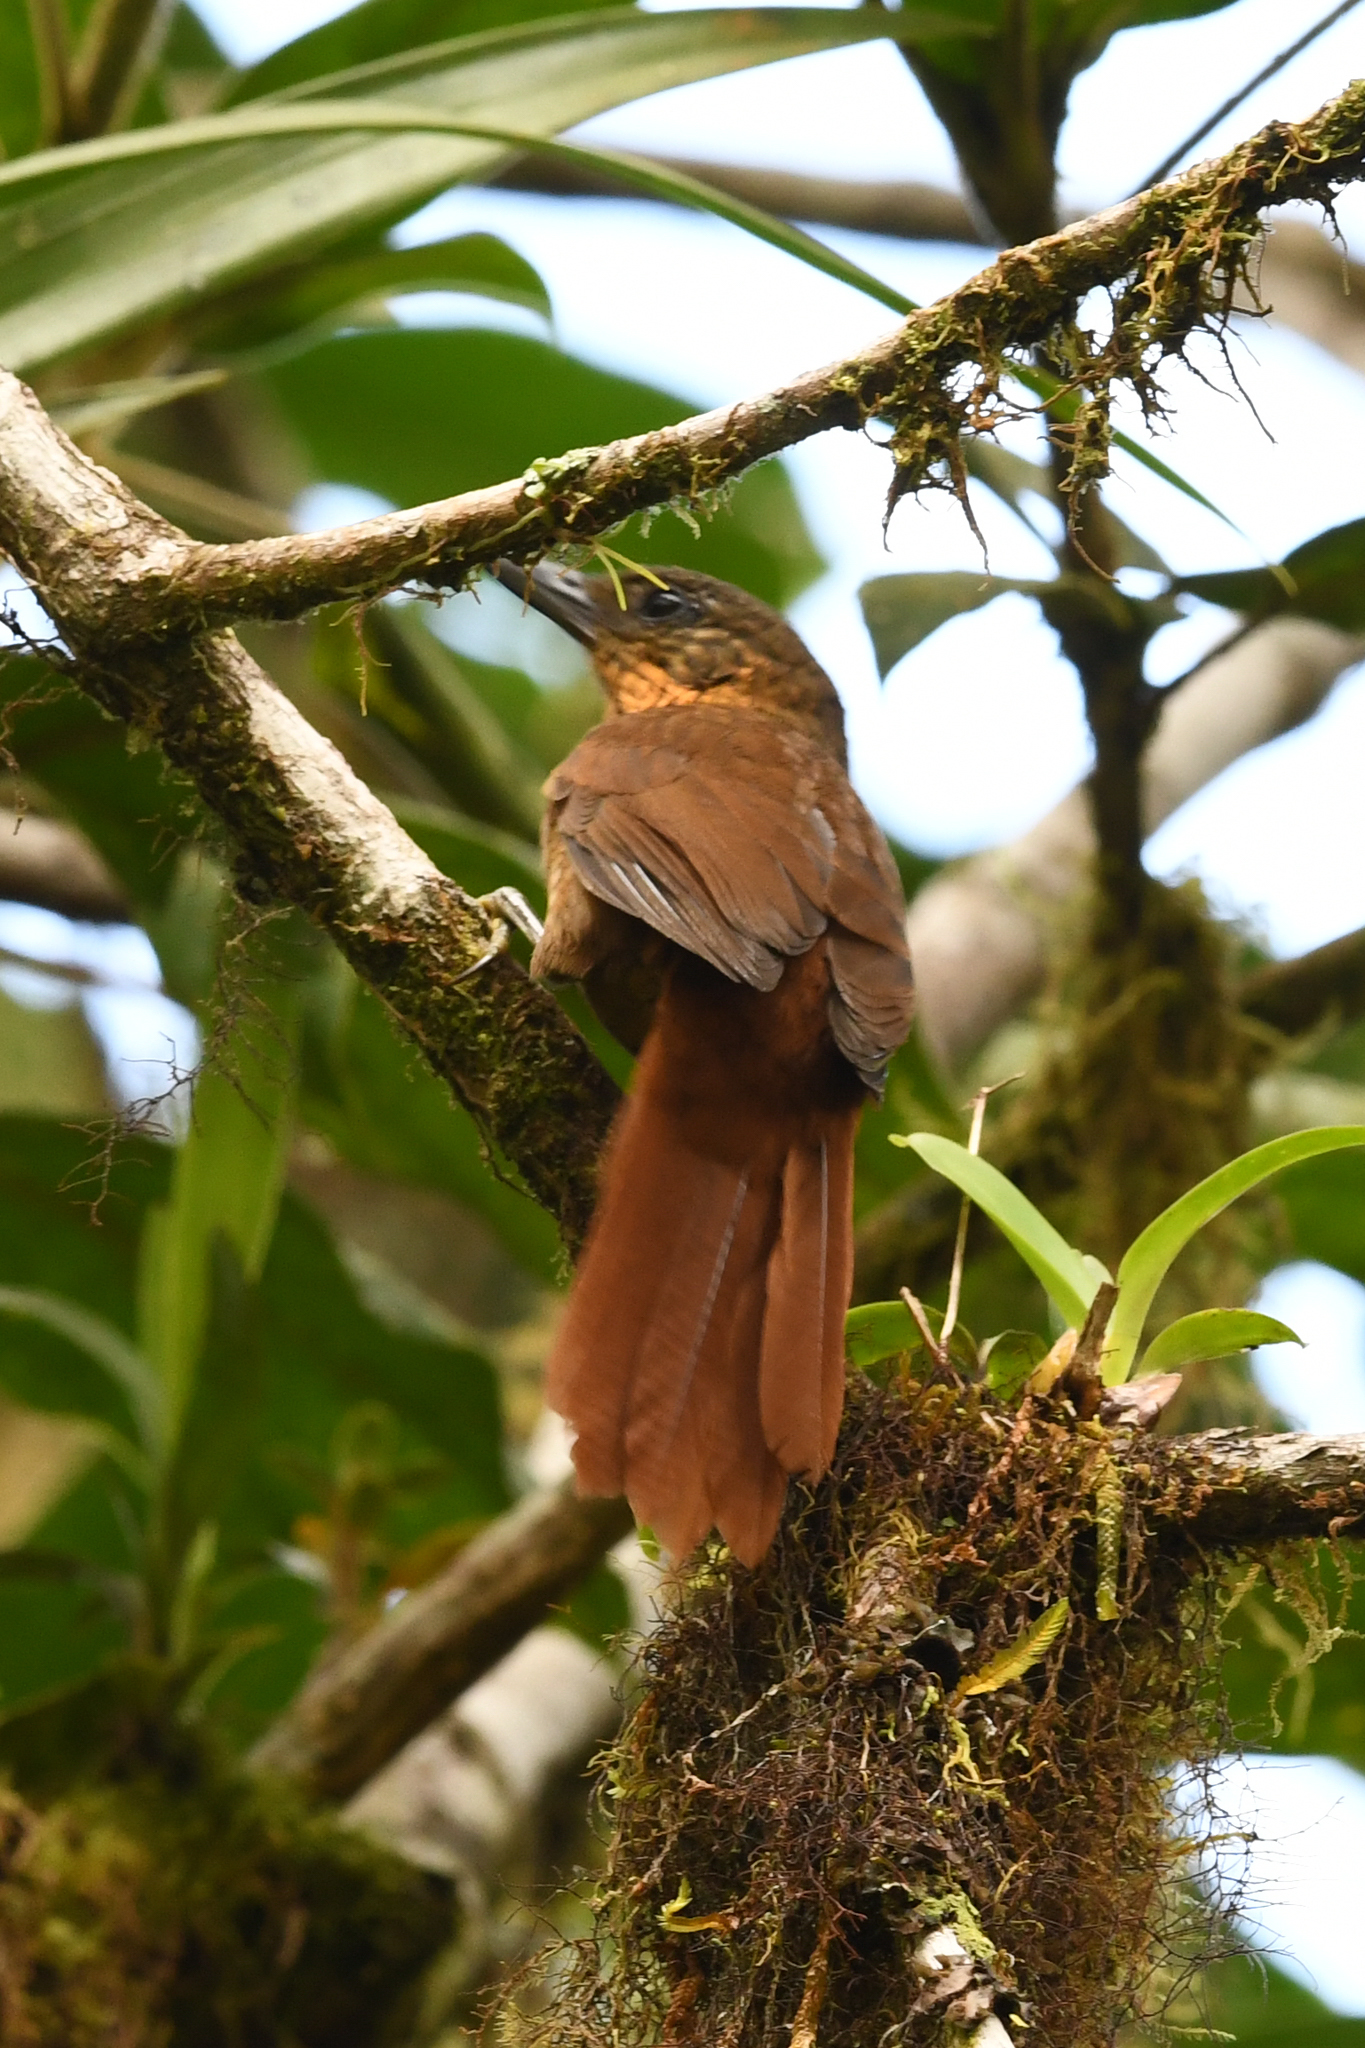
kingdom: Animalia
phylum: Chordata
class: Aves
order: Passeriformes
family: Furnariidae
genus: Thripadectes
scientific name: Thripadectes rufobrunneus
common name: Streak-breasted treehunter
